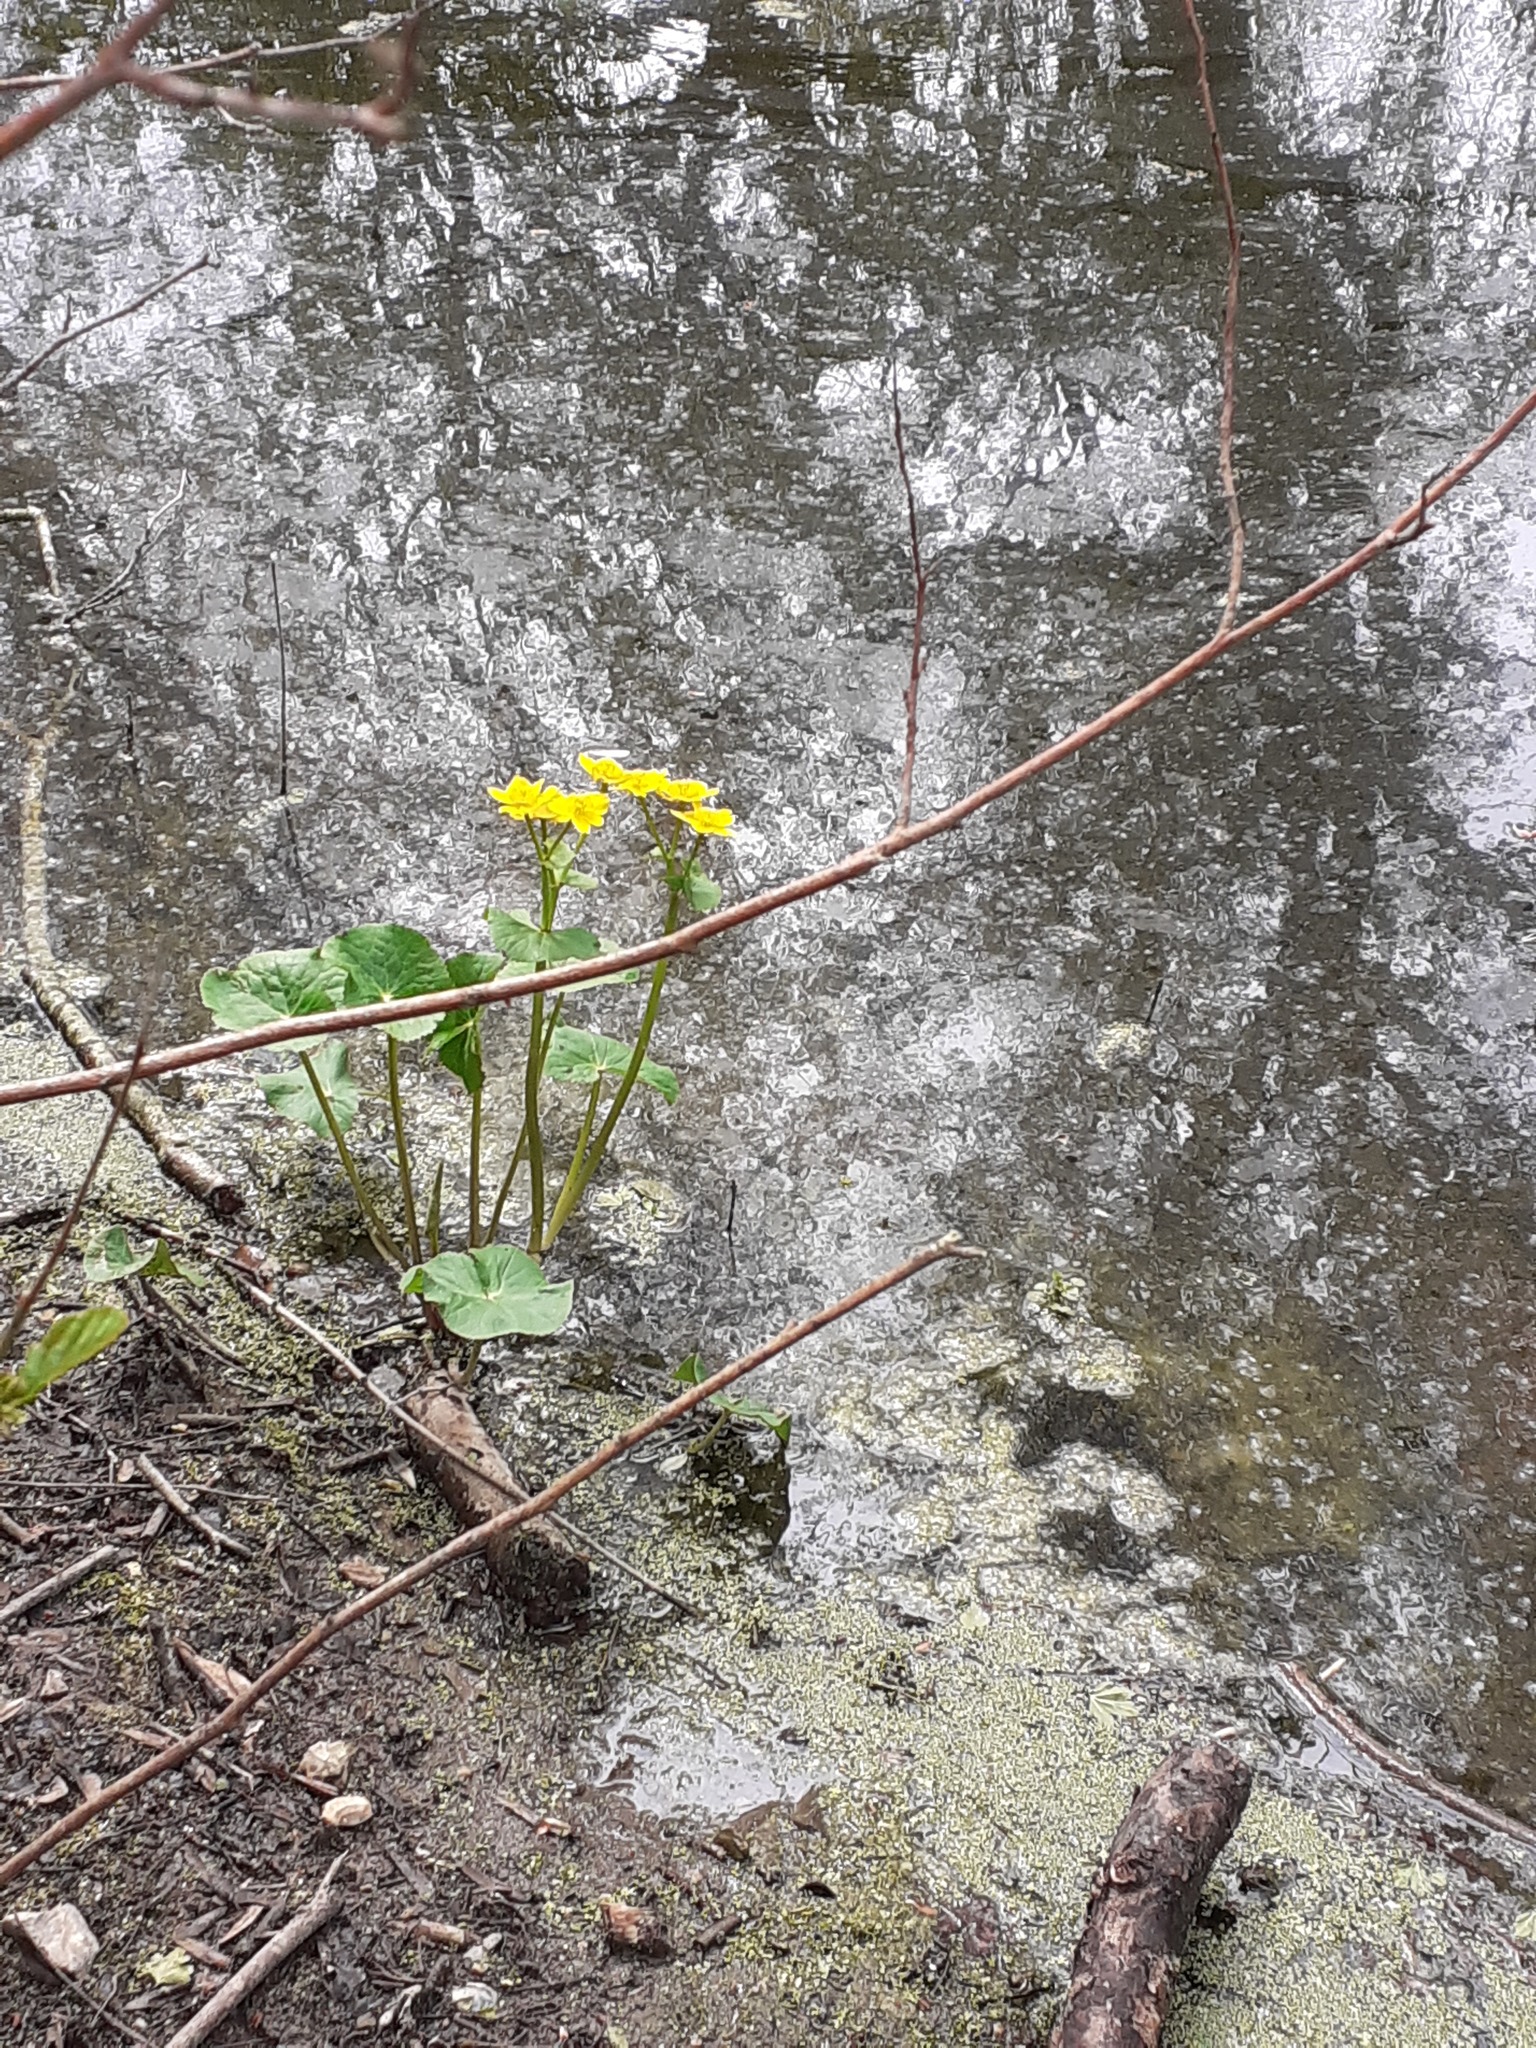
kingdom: Plantae
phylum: Tracheophyta
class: Magnoliopsida
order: Ranunculales
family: Ranunculaceae
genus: Caltha
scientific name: Caltha palustris
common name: Marsh marigold
